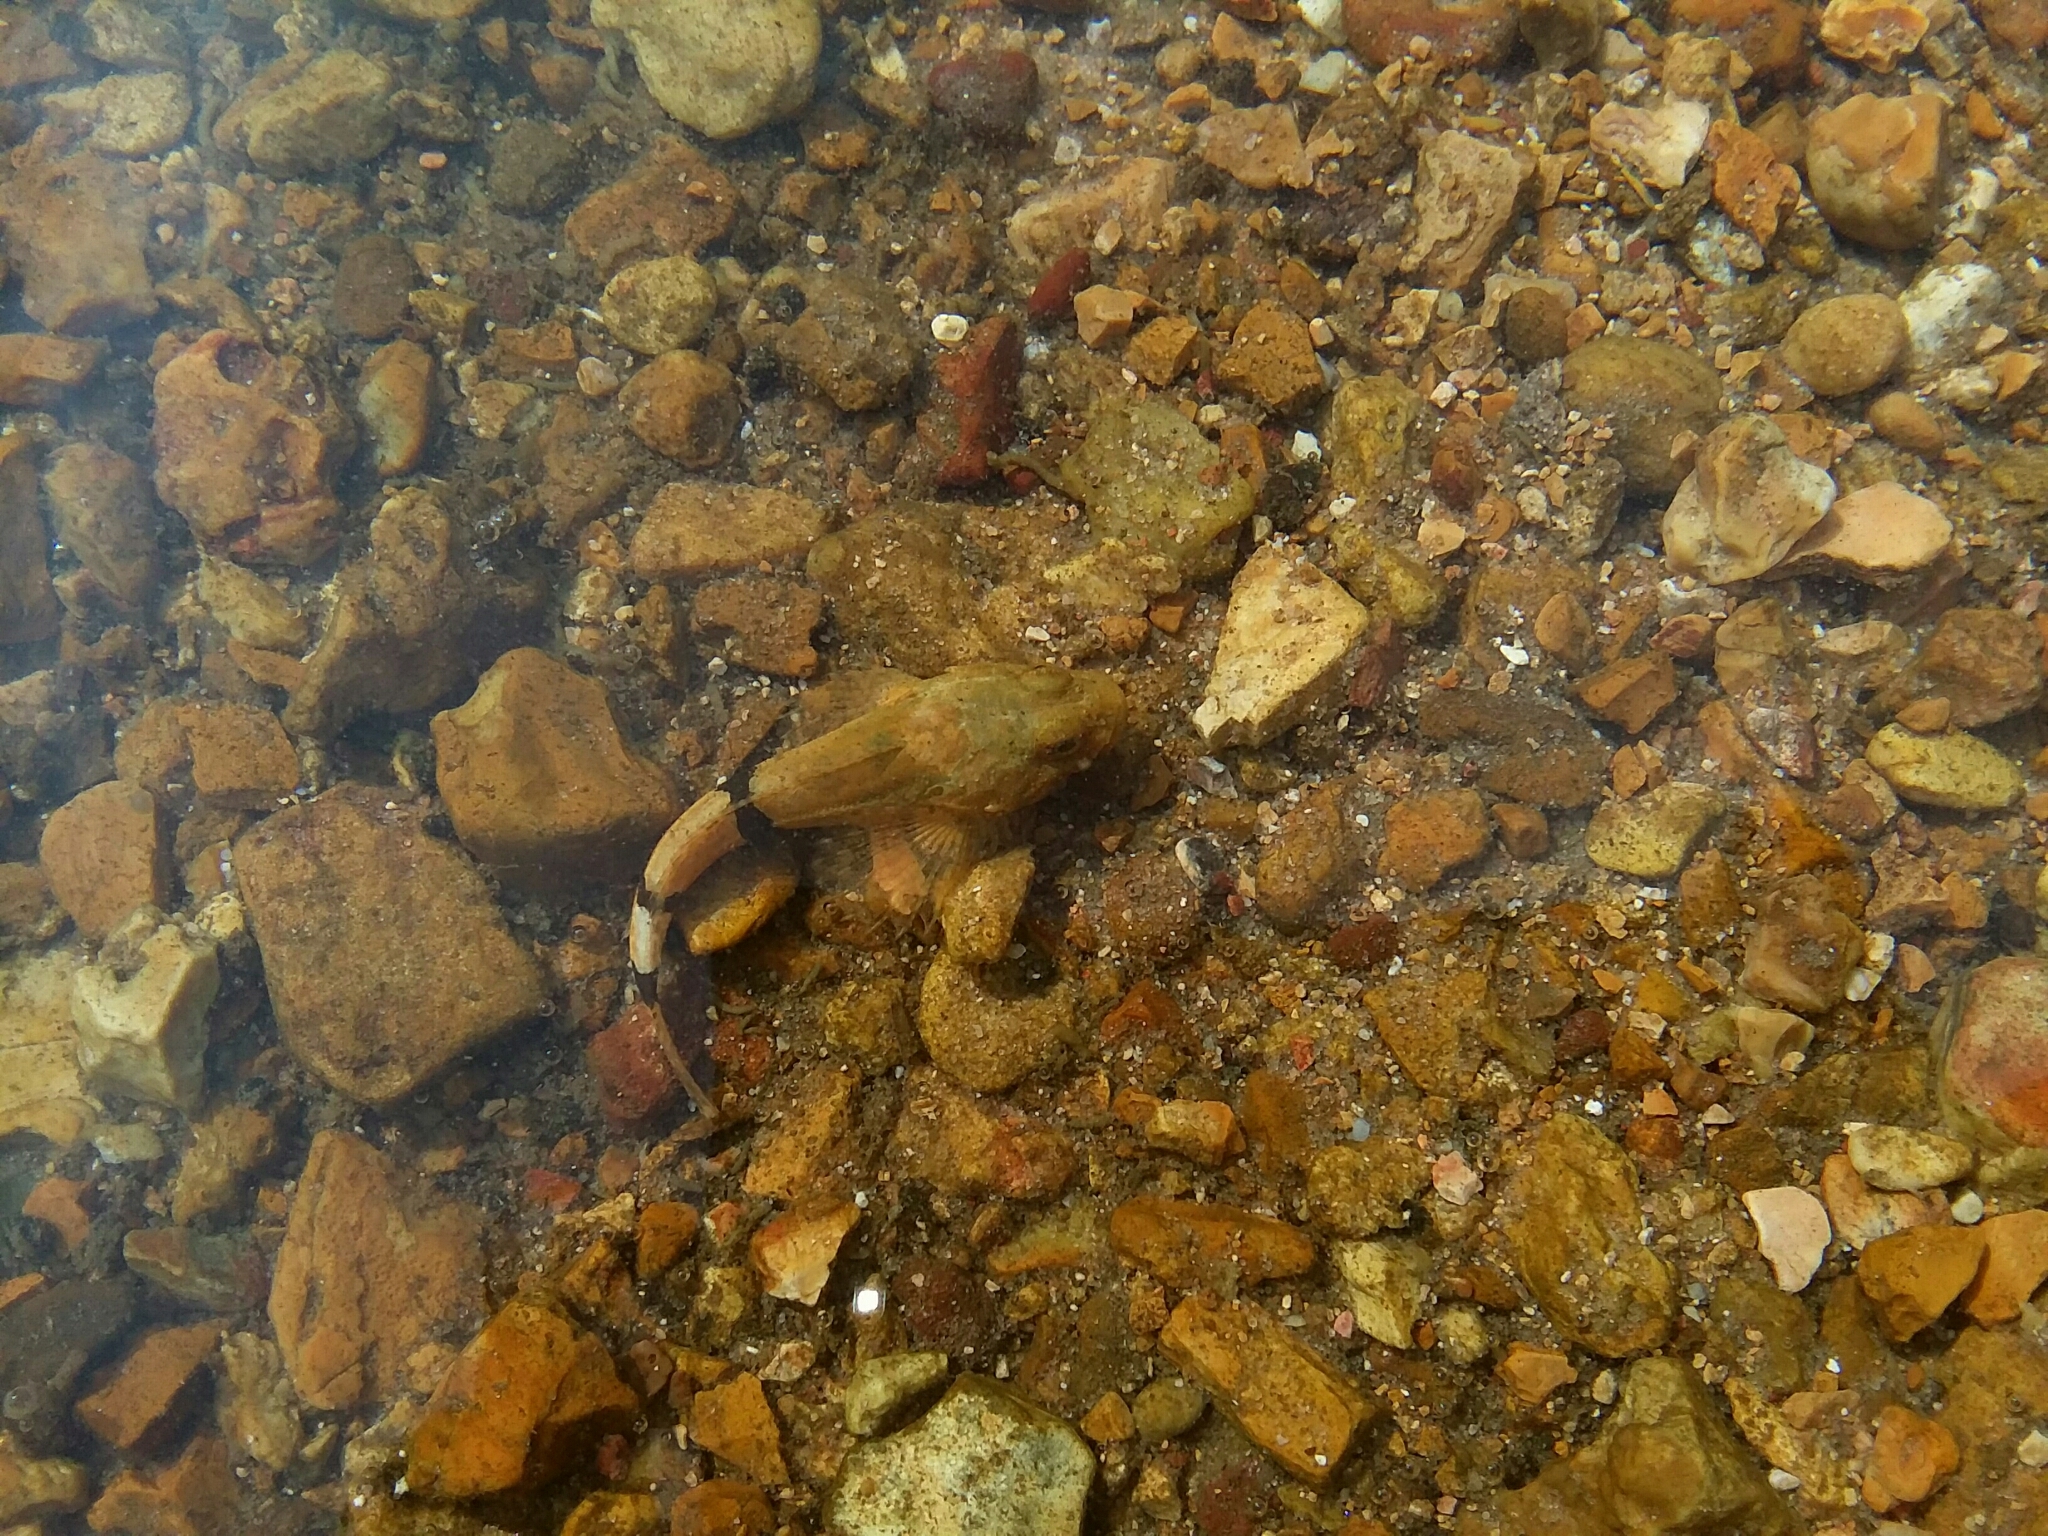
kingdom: Animalia
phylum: Chordata
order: Scorpaeniformes
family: Cottidae
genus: Cottus
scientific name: Cottus carolinae
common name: Banded sculpin
